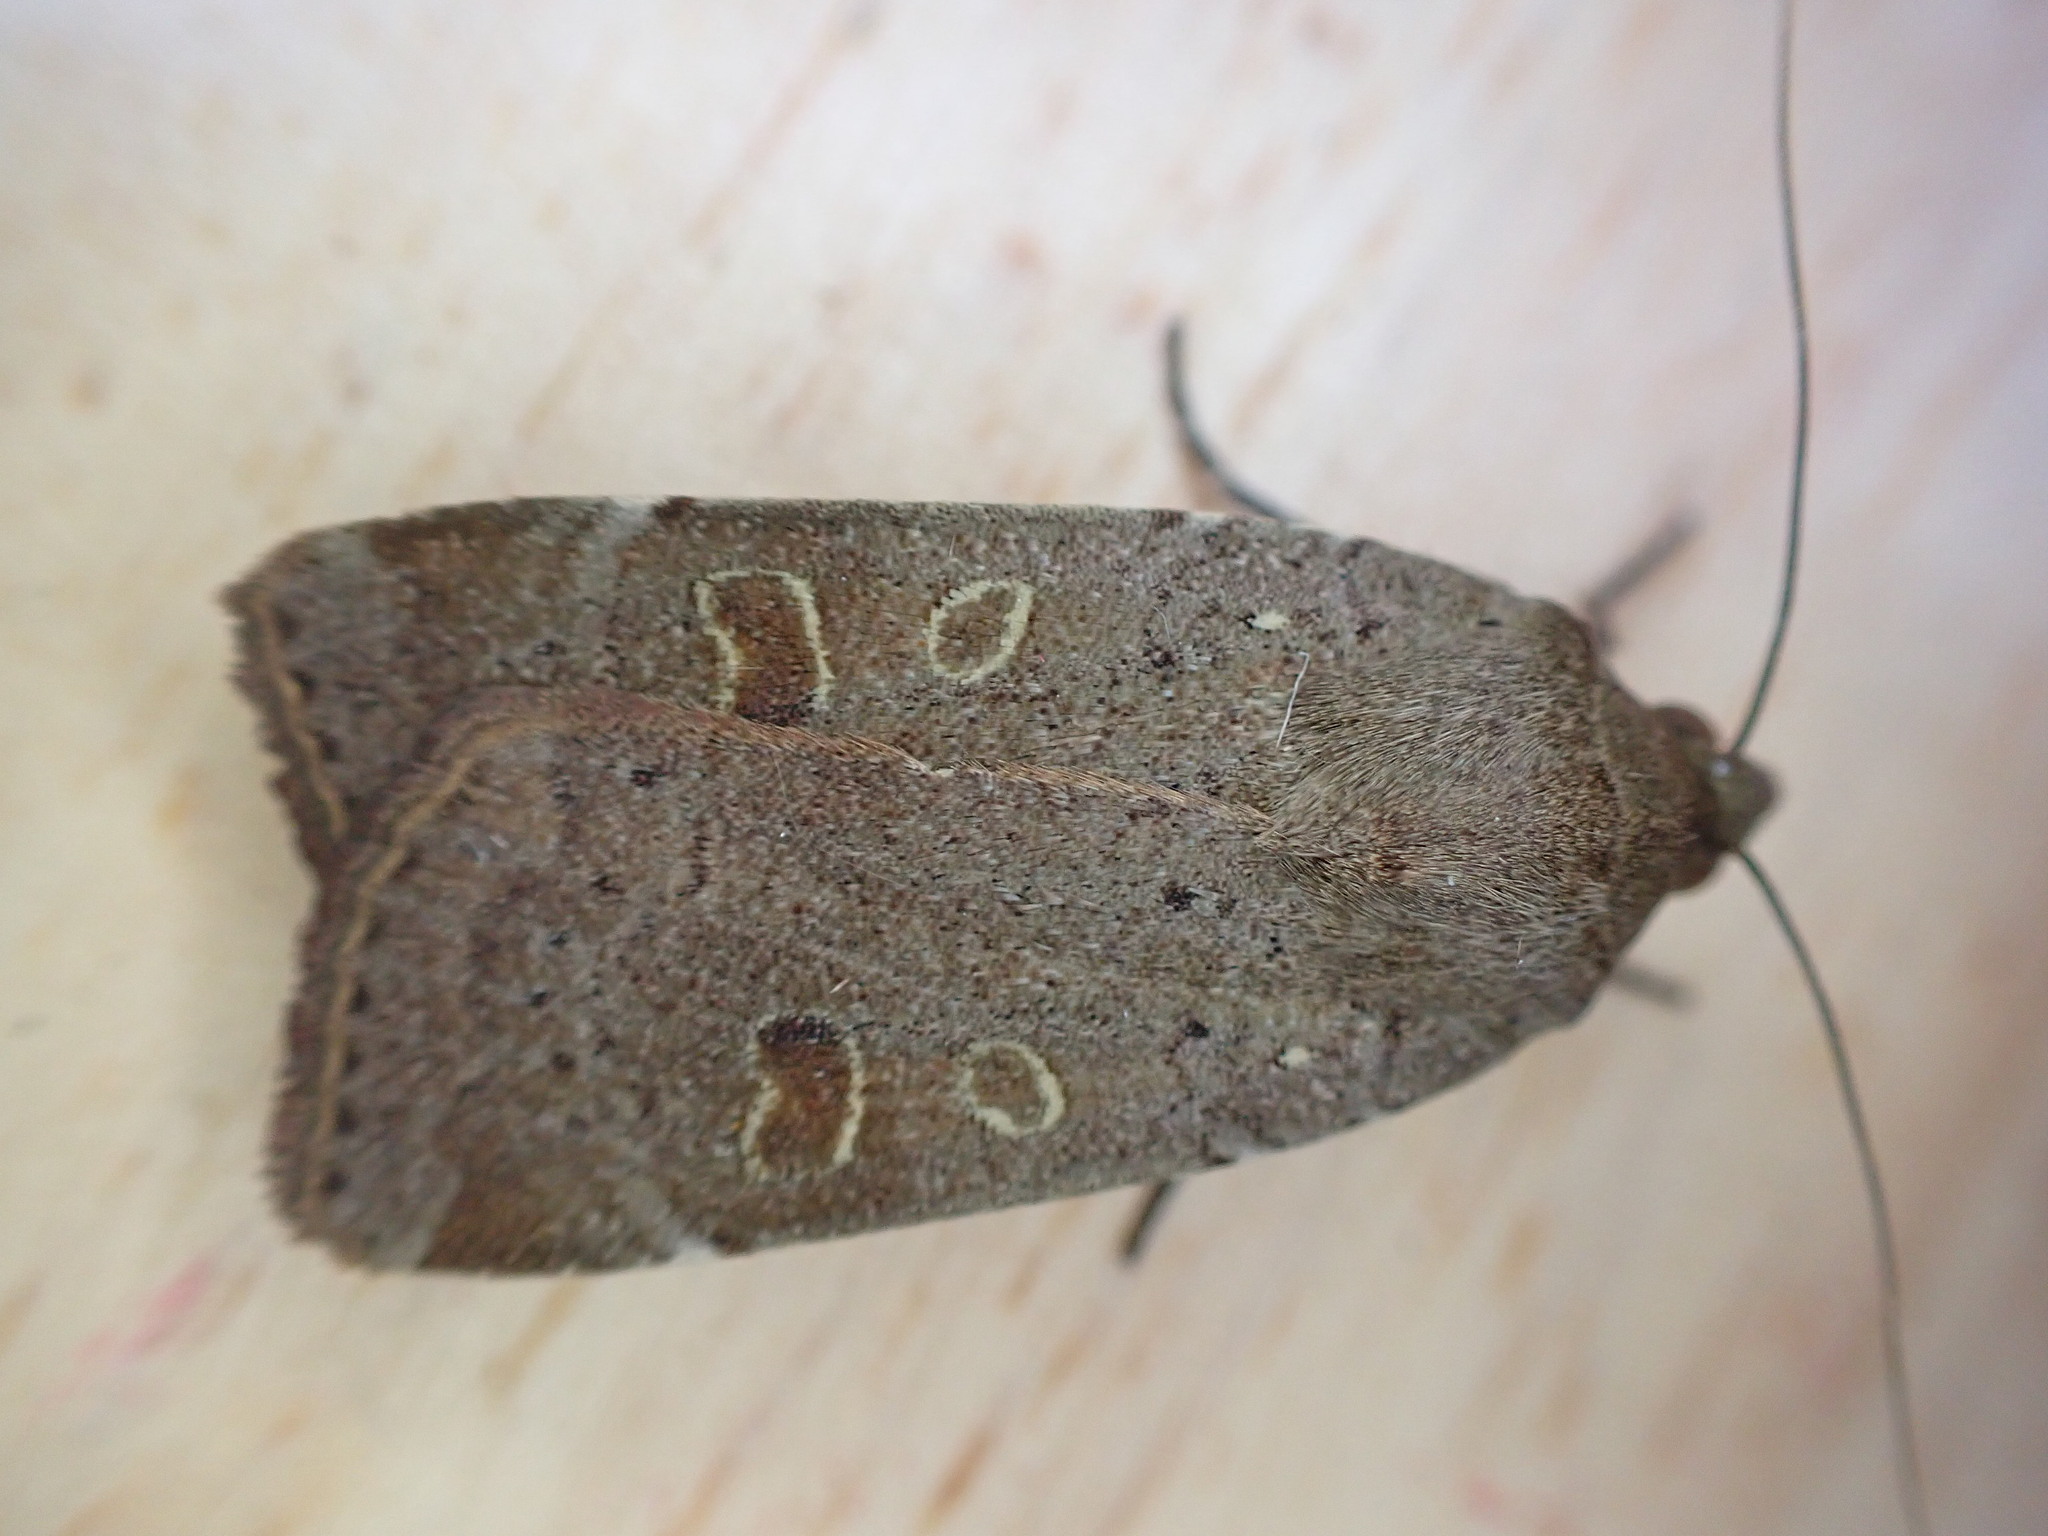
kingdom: Animalia
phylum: Arthropoda
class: Insecta
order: Lepidoptera
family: Noctuidae
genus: Noctua
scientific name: Noctua comes
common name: Lesser yellow underwing
